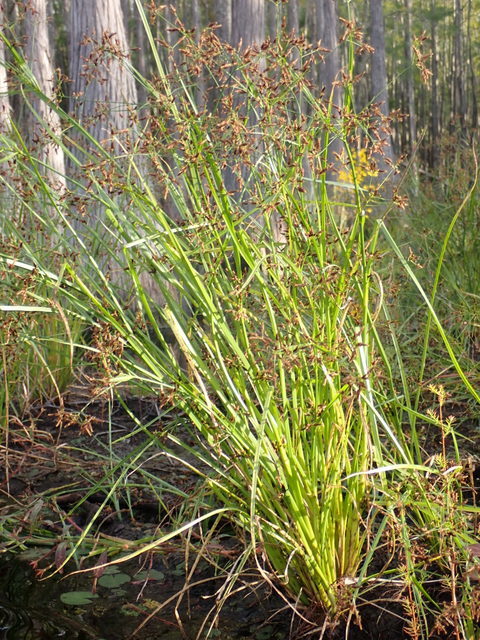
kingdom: Plantae
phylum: Tracheophyta
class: Liliopsida
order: Poales
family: Cyperaceae
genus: Rhynchospora
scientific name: Rhynchospora corniculata
